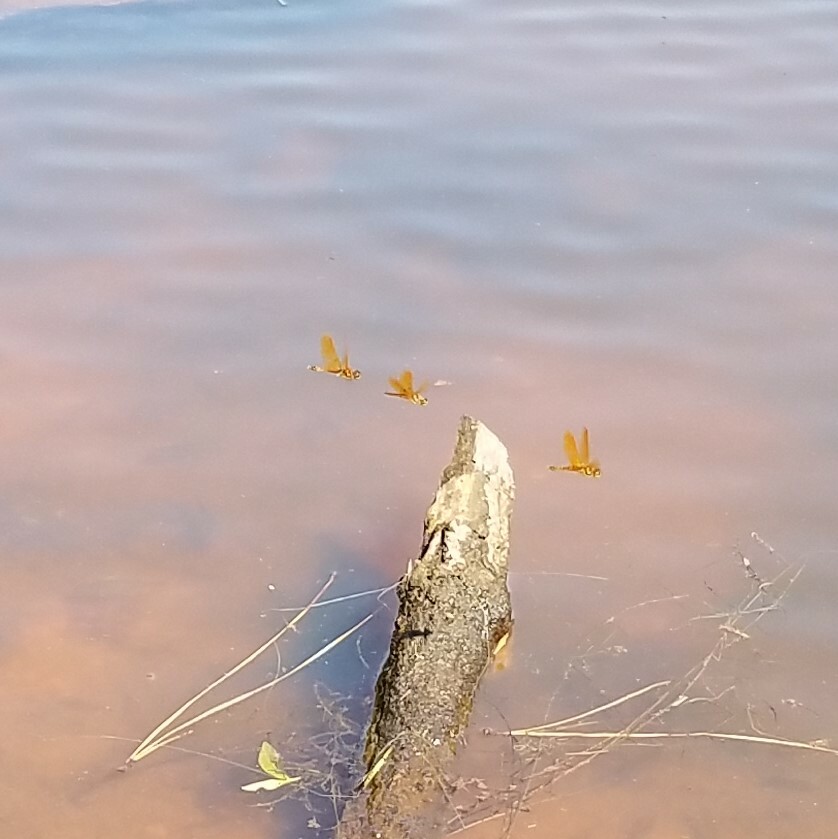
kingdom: Animalia
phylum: Arthropoda
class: Insecta
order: Odonata
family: Libellulidae
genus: Perithemis
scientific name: Perithemis tenera
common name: Eastern amberwing
